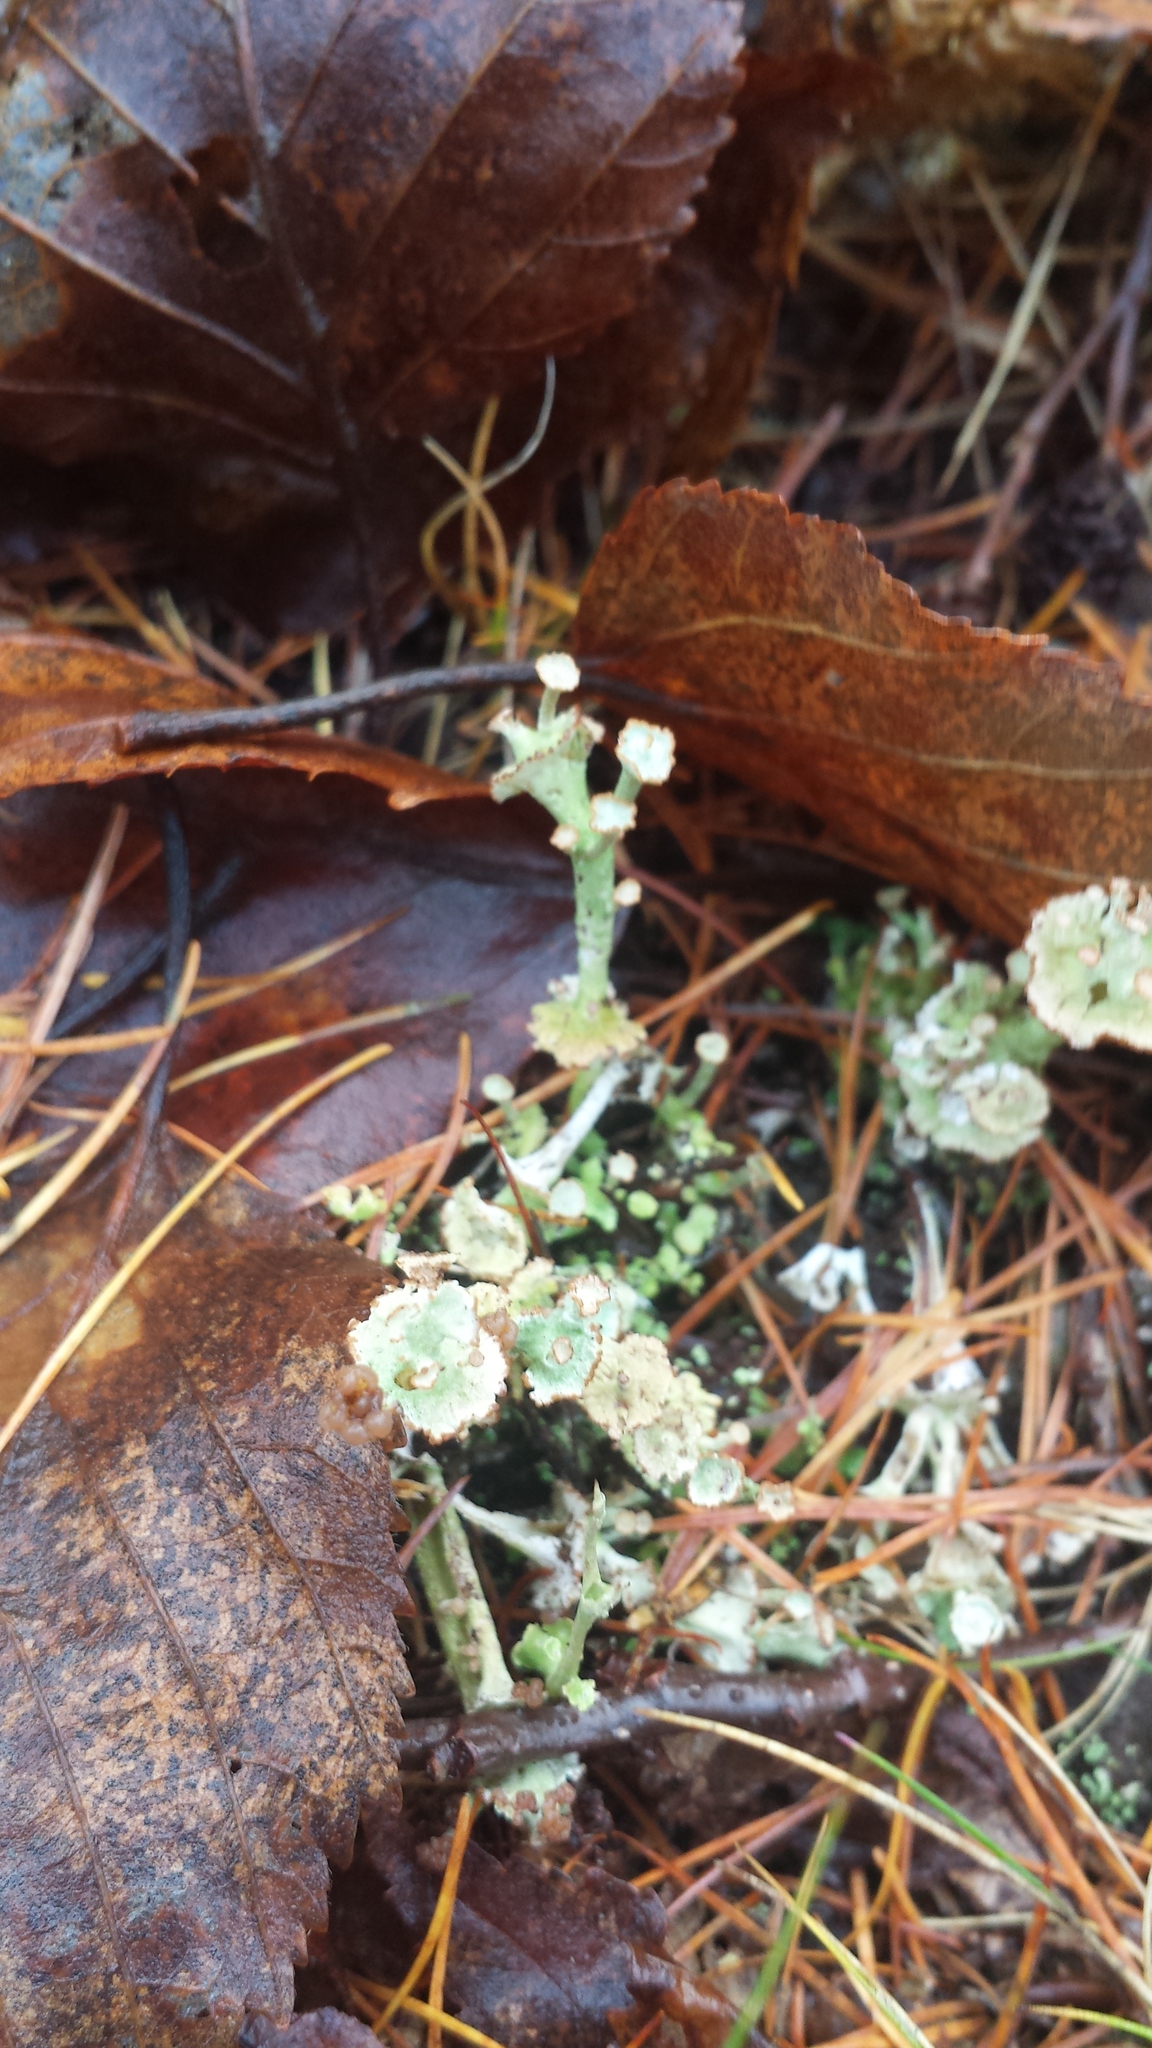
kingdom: Fungi
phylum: Ascomycota
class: Lecanoromycetes
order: Lecanorales
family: Cladoniaceae
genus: Cladonia
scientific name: Cladonia cervicornis
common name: Browned pixie-cup lichen
